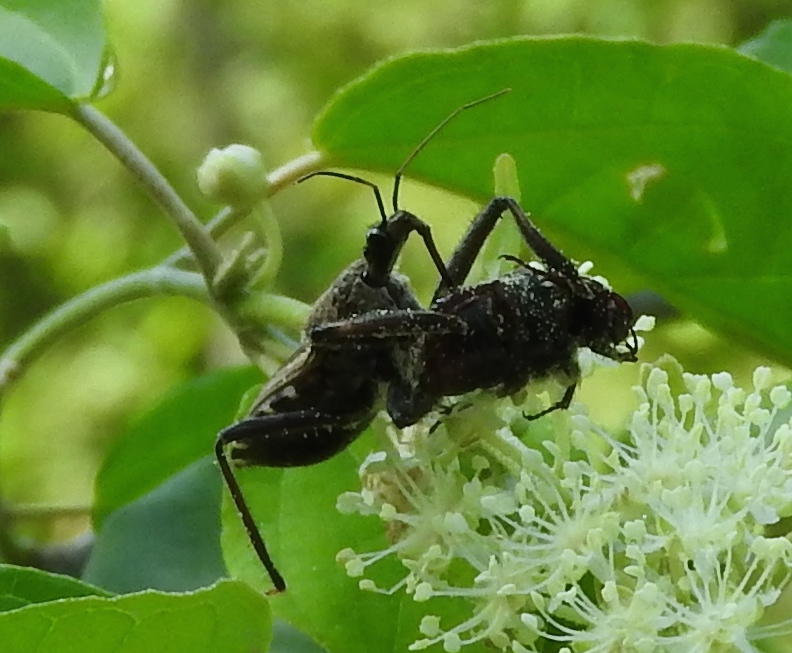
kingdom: Animalia
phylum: Arthropoda
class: Insecta
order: Hemiptera
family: Reduviidae
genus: Apiomerus
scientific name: Apiomerus longispinis
